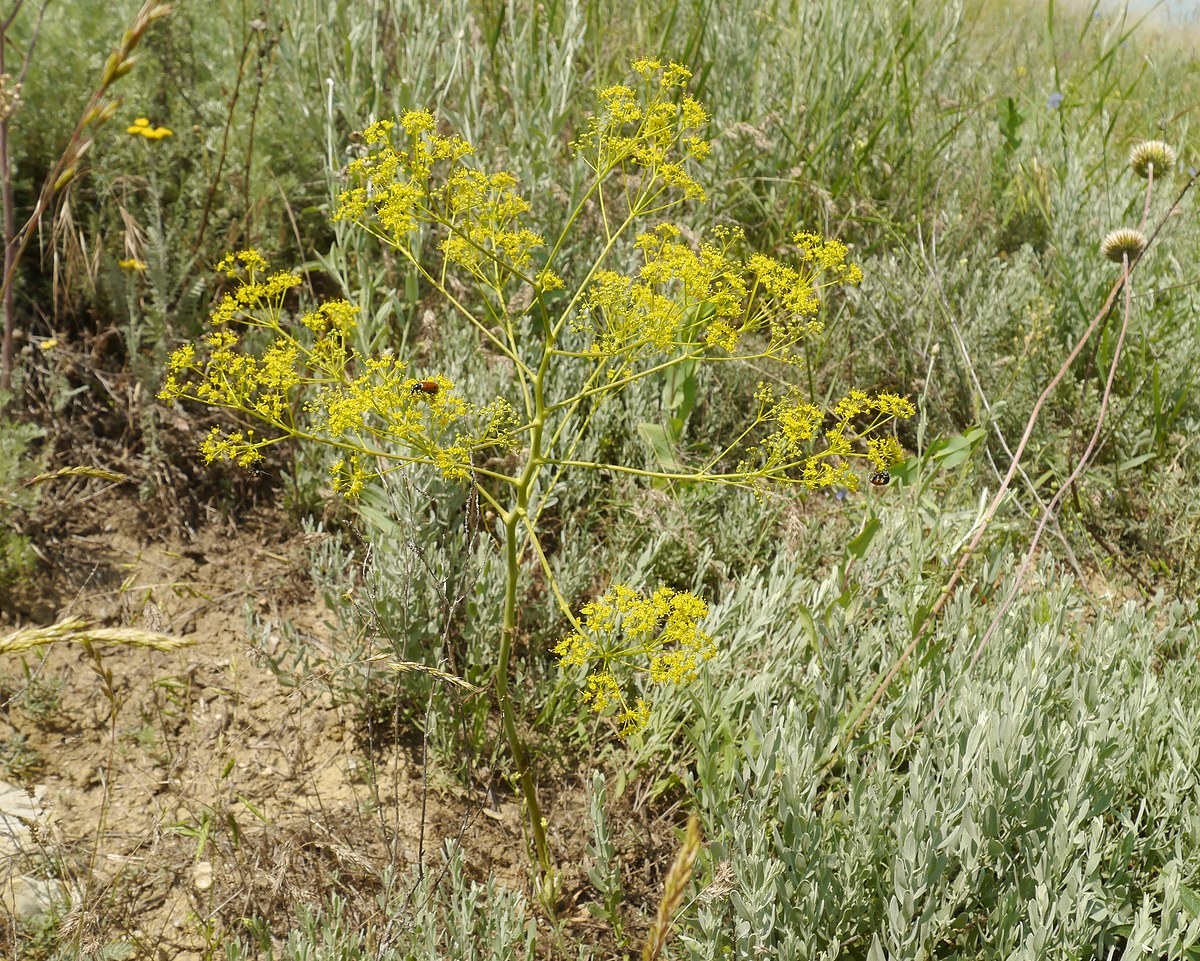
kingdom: Plantae
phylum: Tracheophyta
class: Magnoliopsida
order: Apiales
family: Apiaceae
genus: Ferula
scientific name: Ferula caspica
